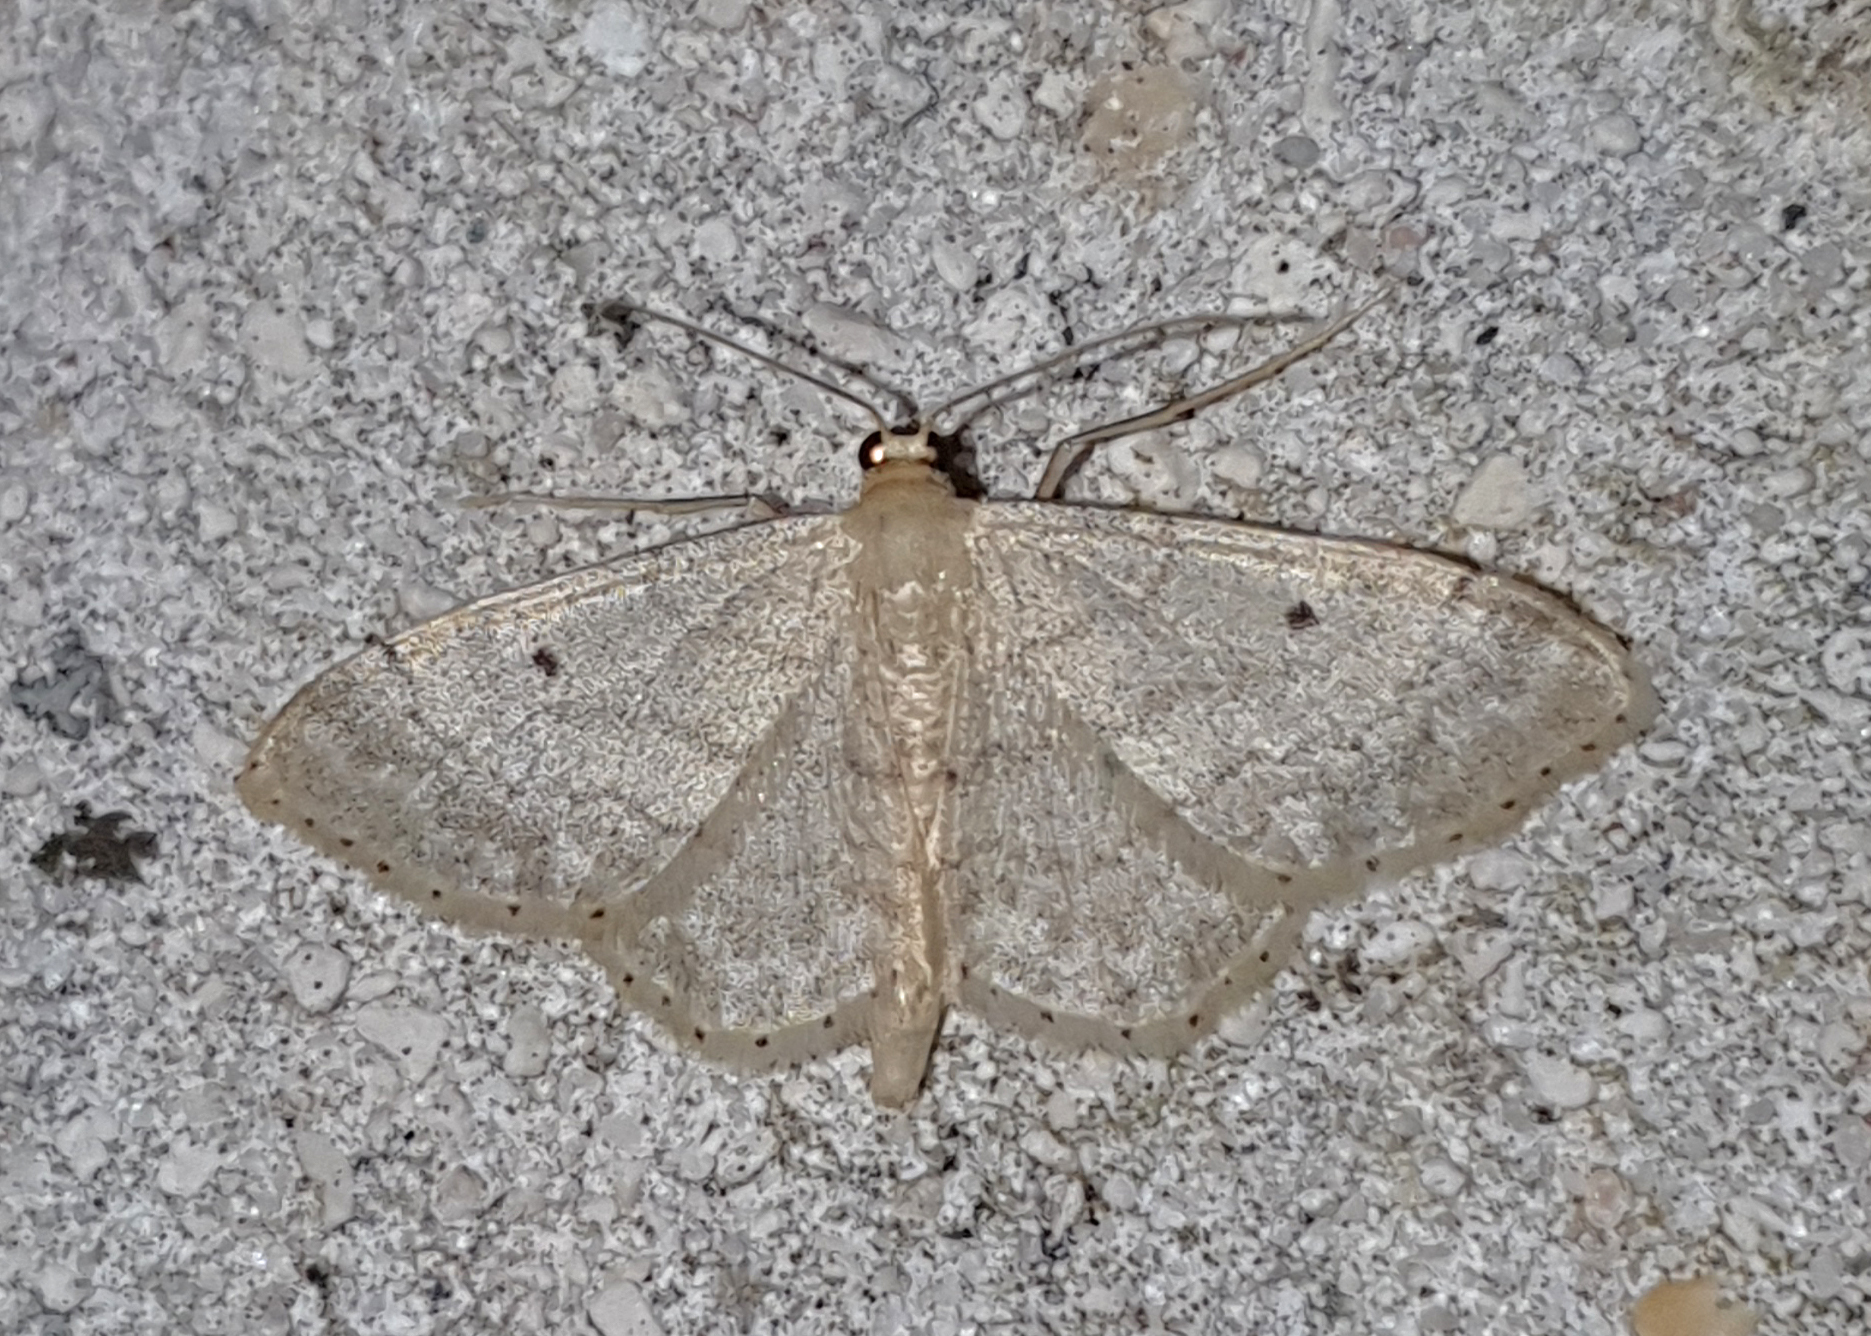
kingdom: Animalia
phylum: Arthropoda
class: Insecta
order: Lepidoptera
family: Geometridae
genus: Idaea
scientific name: Idaea biselata
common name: Small fan-footed wave
